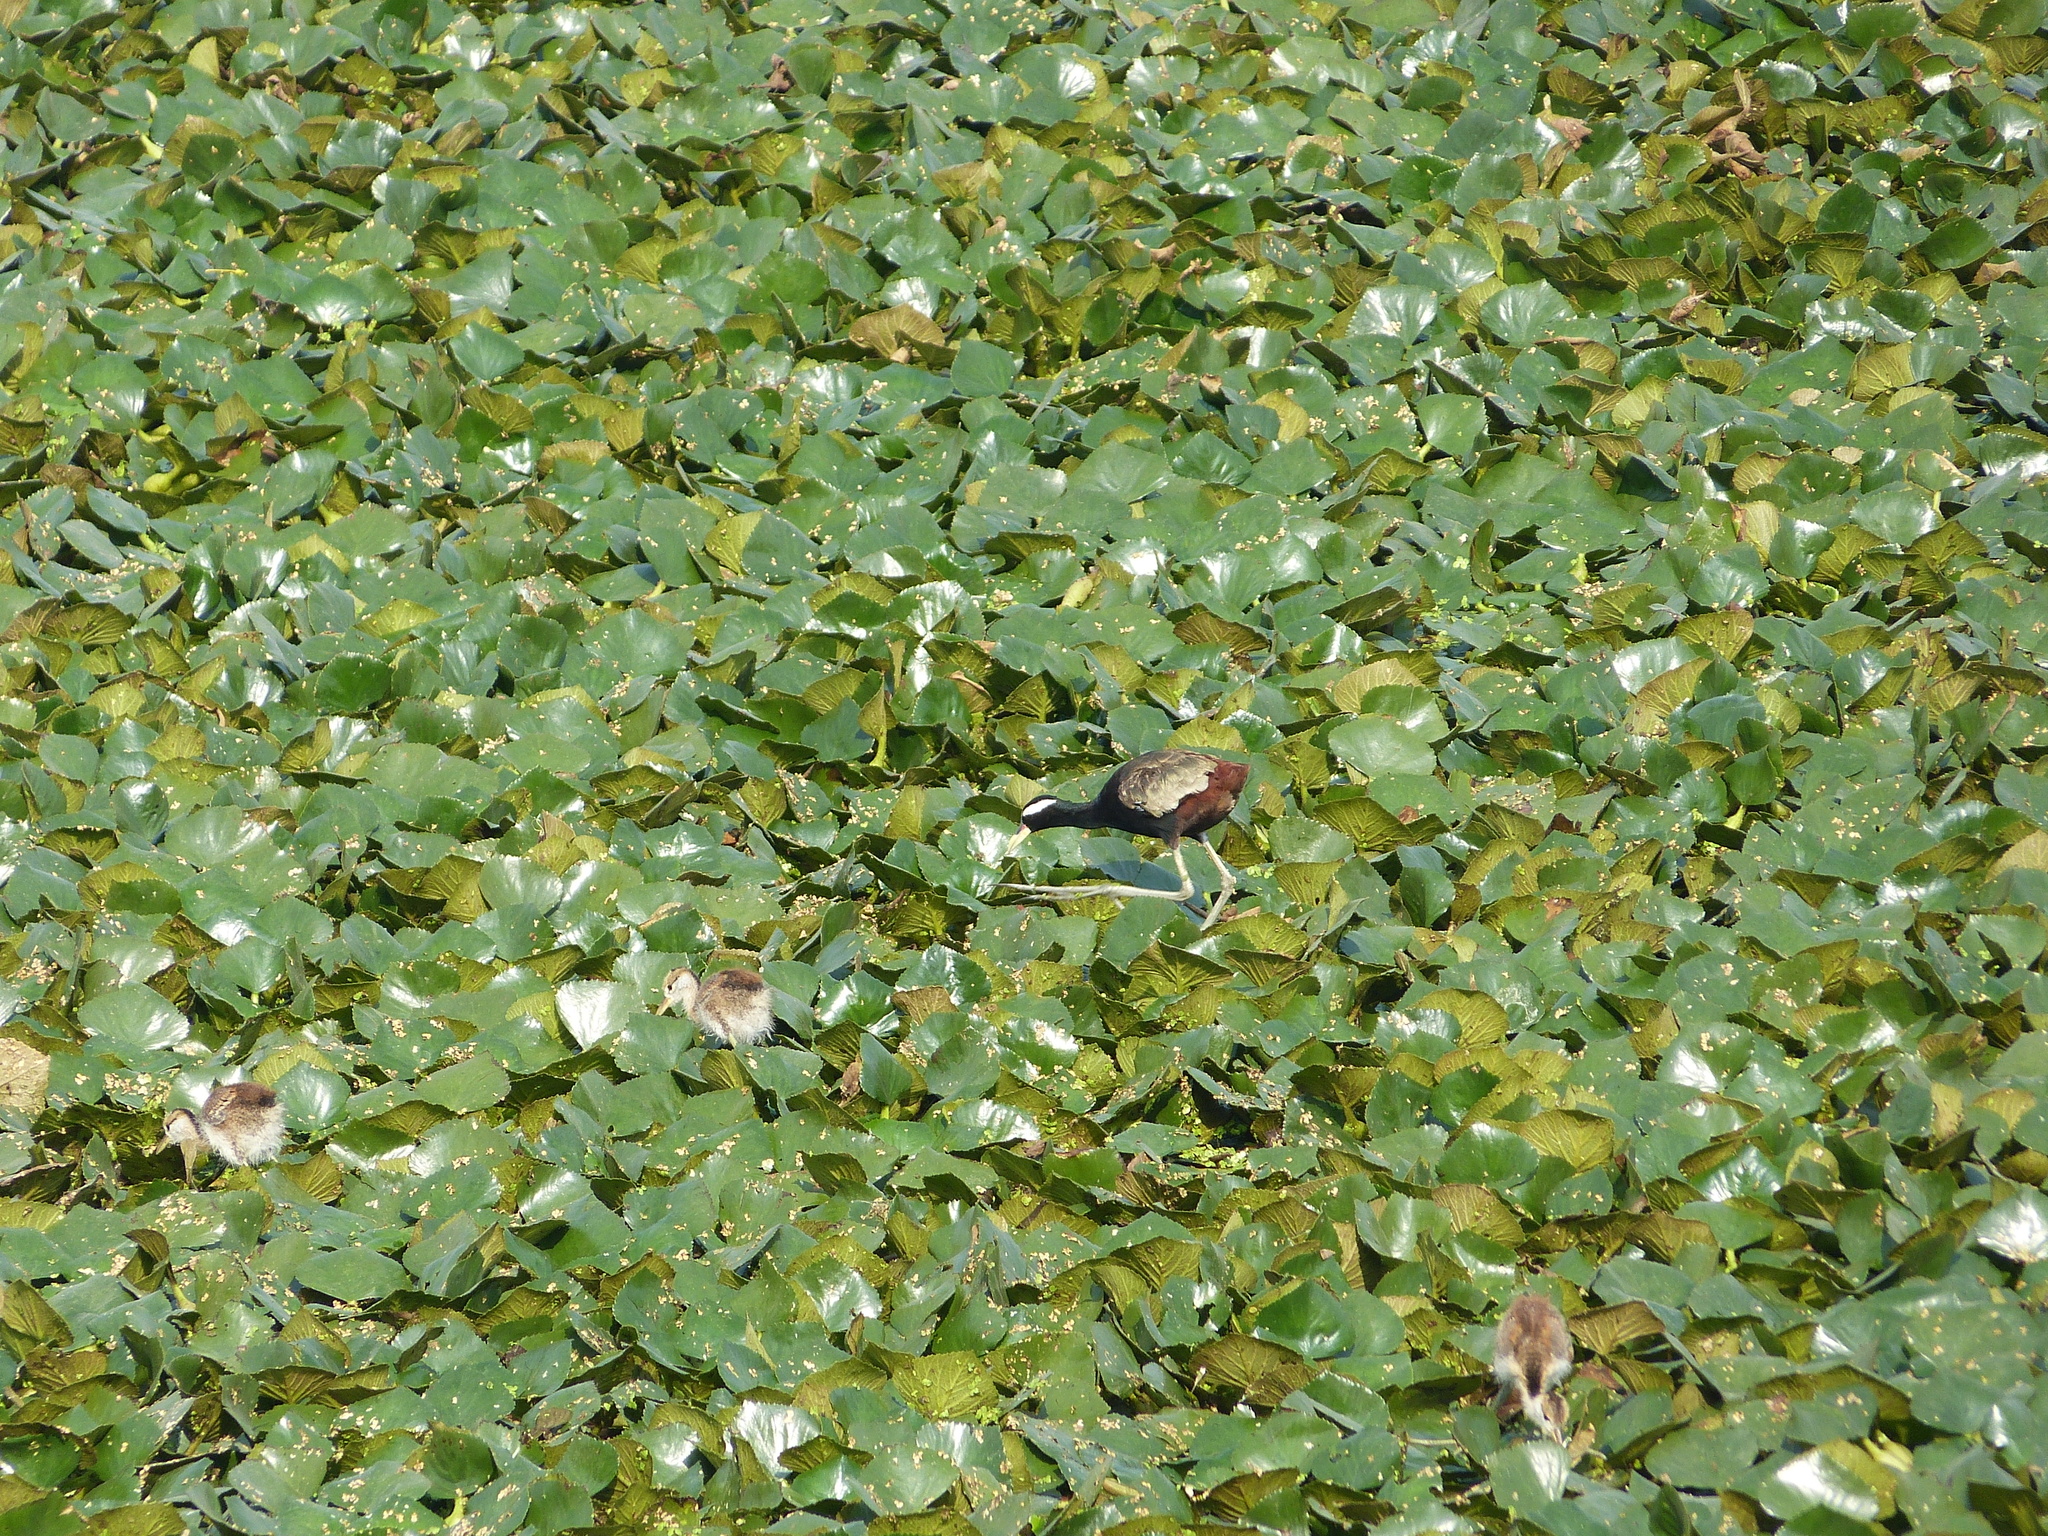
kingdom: Animalia
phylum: Chordata
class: Aves
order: Charadriiformes
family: Jacanidae
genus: Metopidius
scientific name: Metopidius indicus
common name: Bronze-winged jacana
